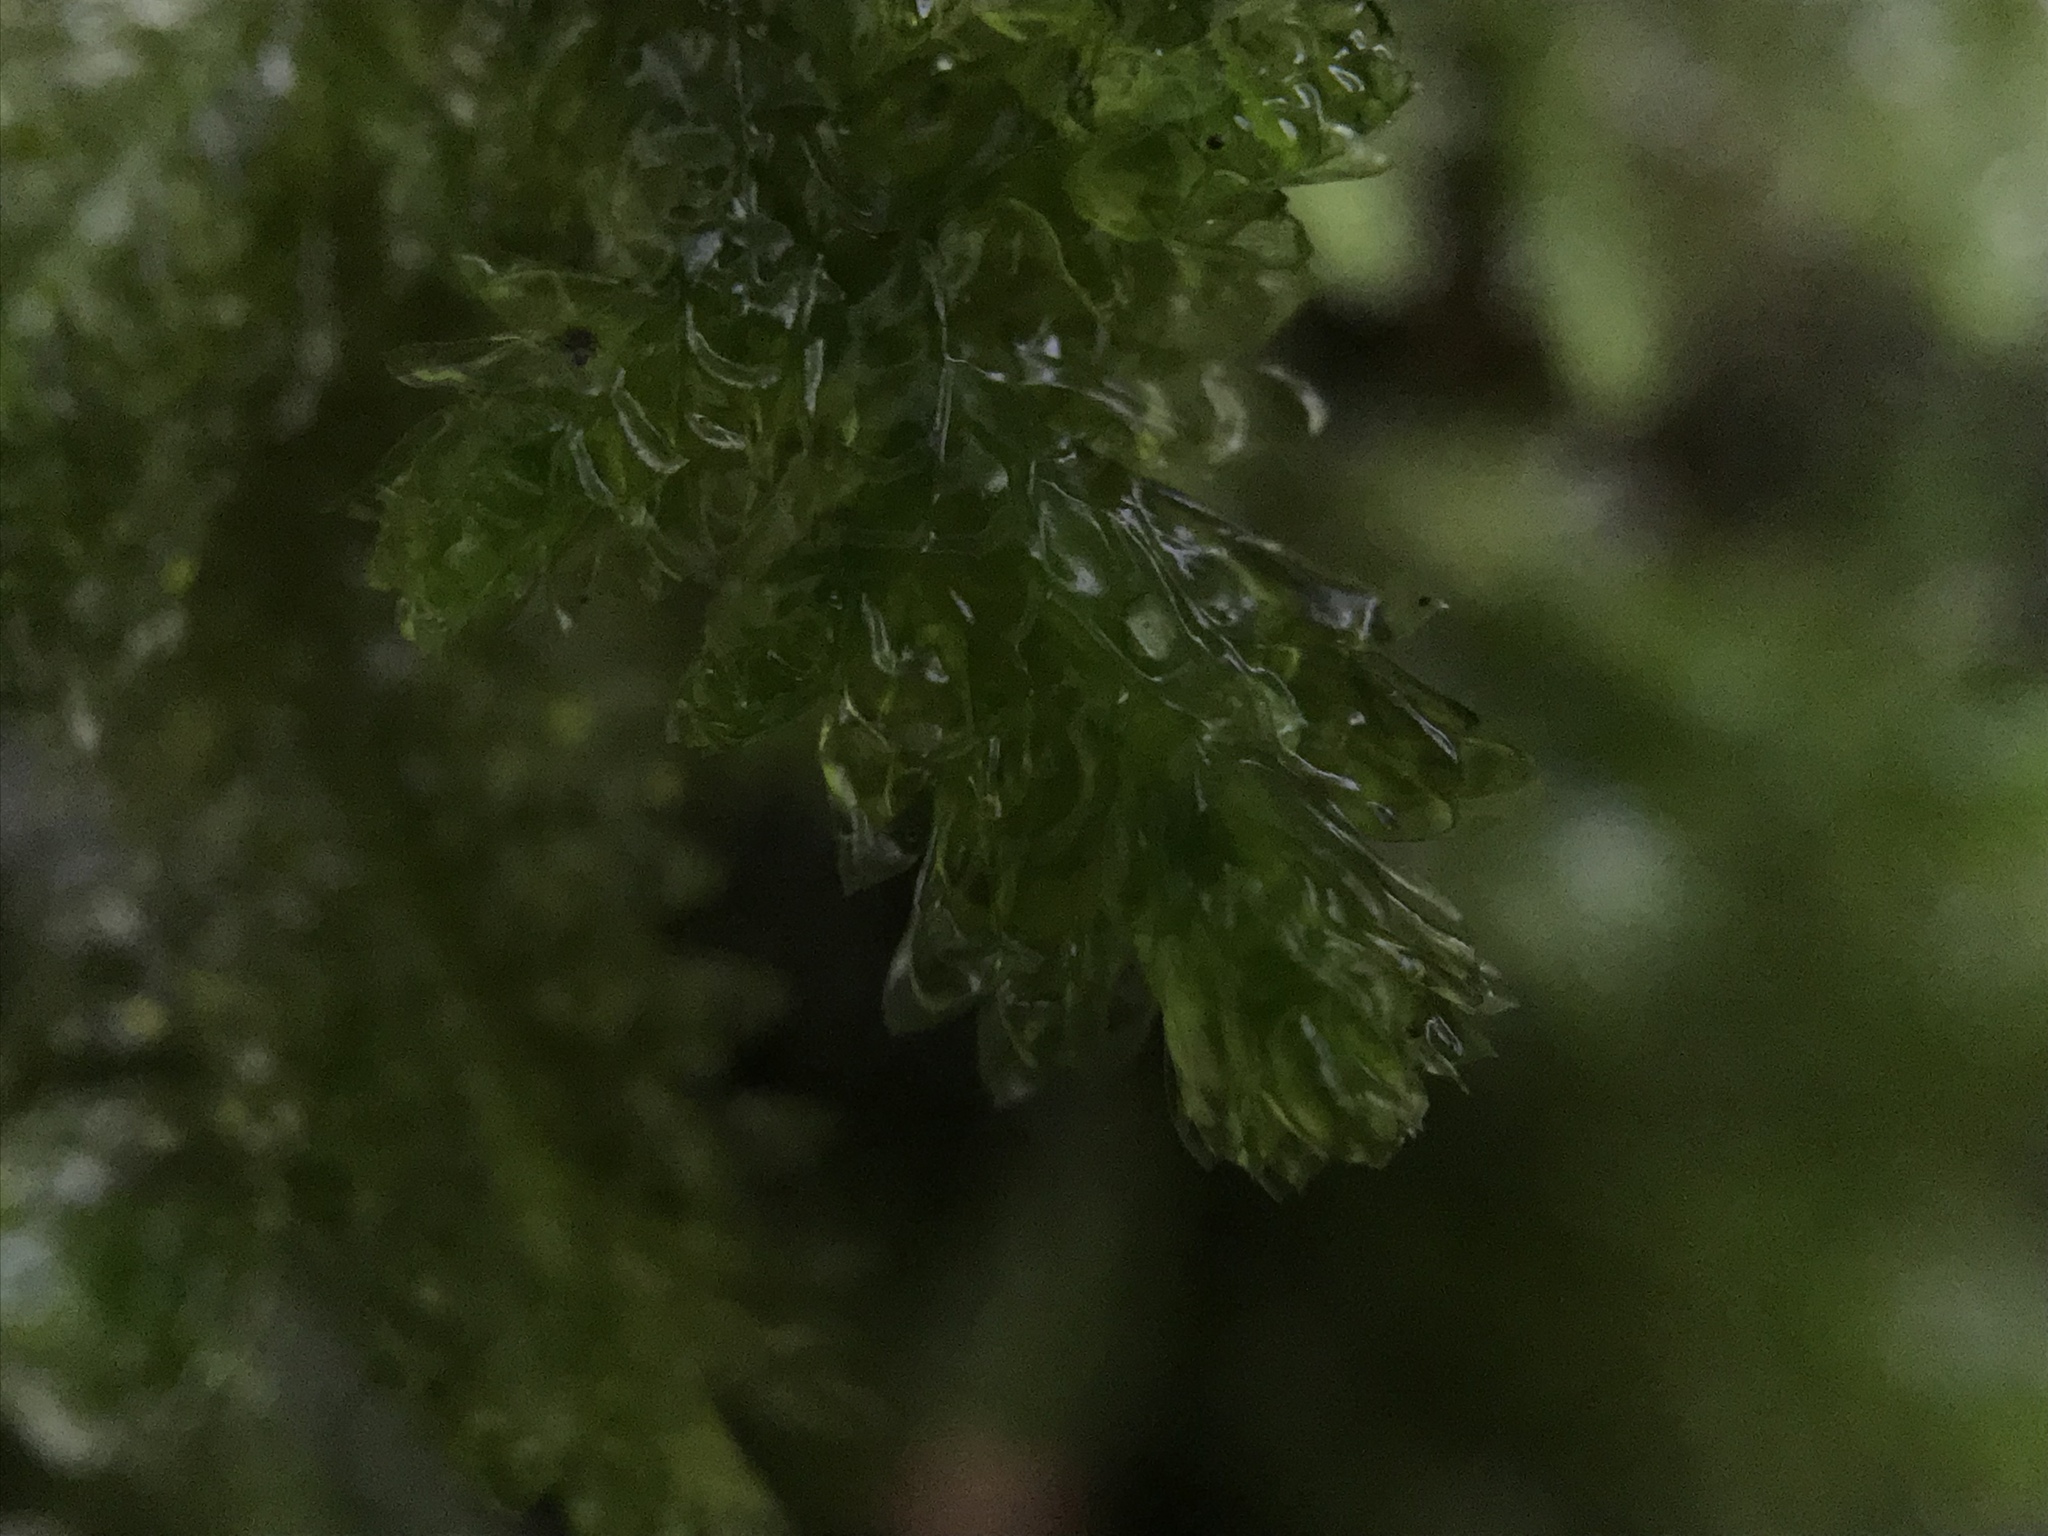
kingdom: Plantae
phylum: Bryophyta
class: Bryopsida
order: Hypnales
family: Neckeraceae
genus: Exsertotheca
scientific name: Exsertotheca crispa
